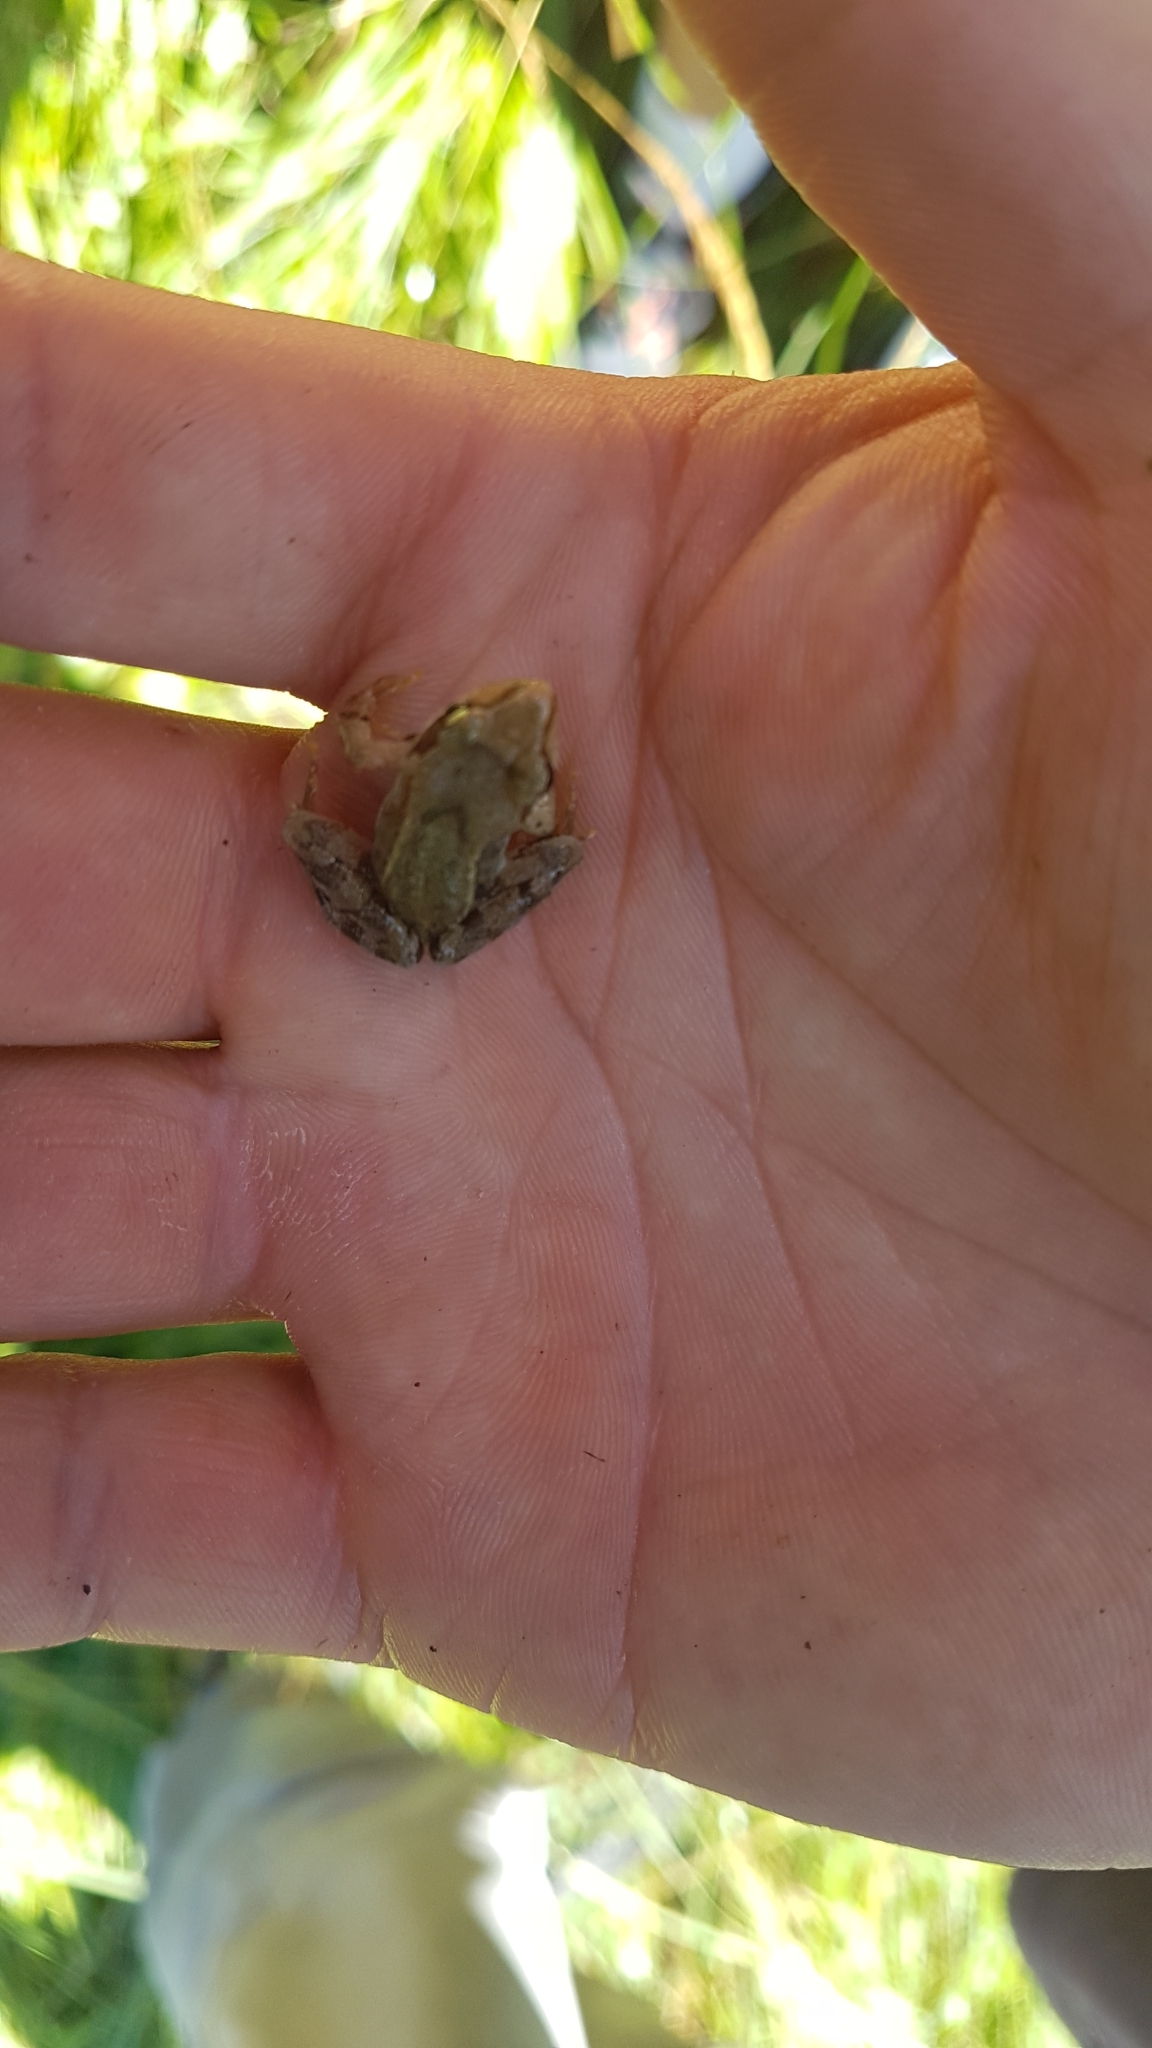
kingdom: Animalia
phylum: Chordata
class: Amphibia
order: Anura
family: Ranidae
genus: Rana
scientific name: Rana temporaria
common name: Common frog
